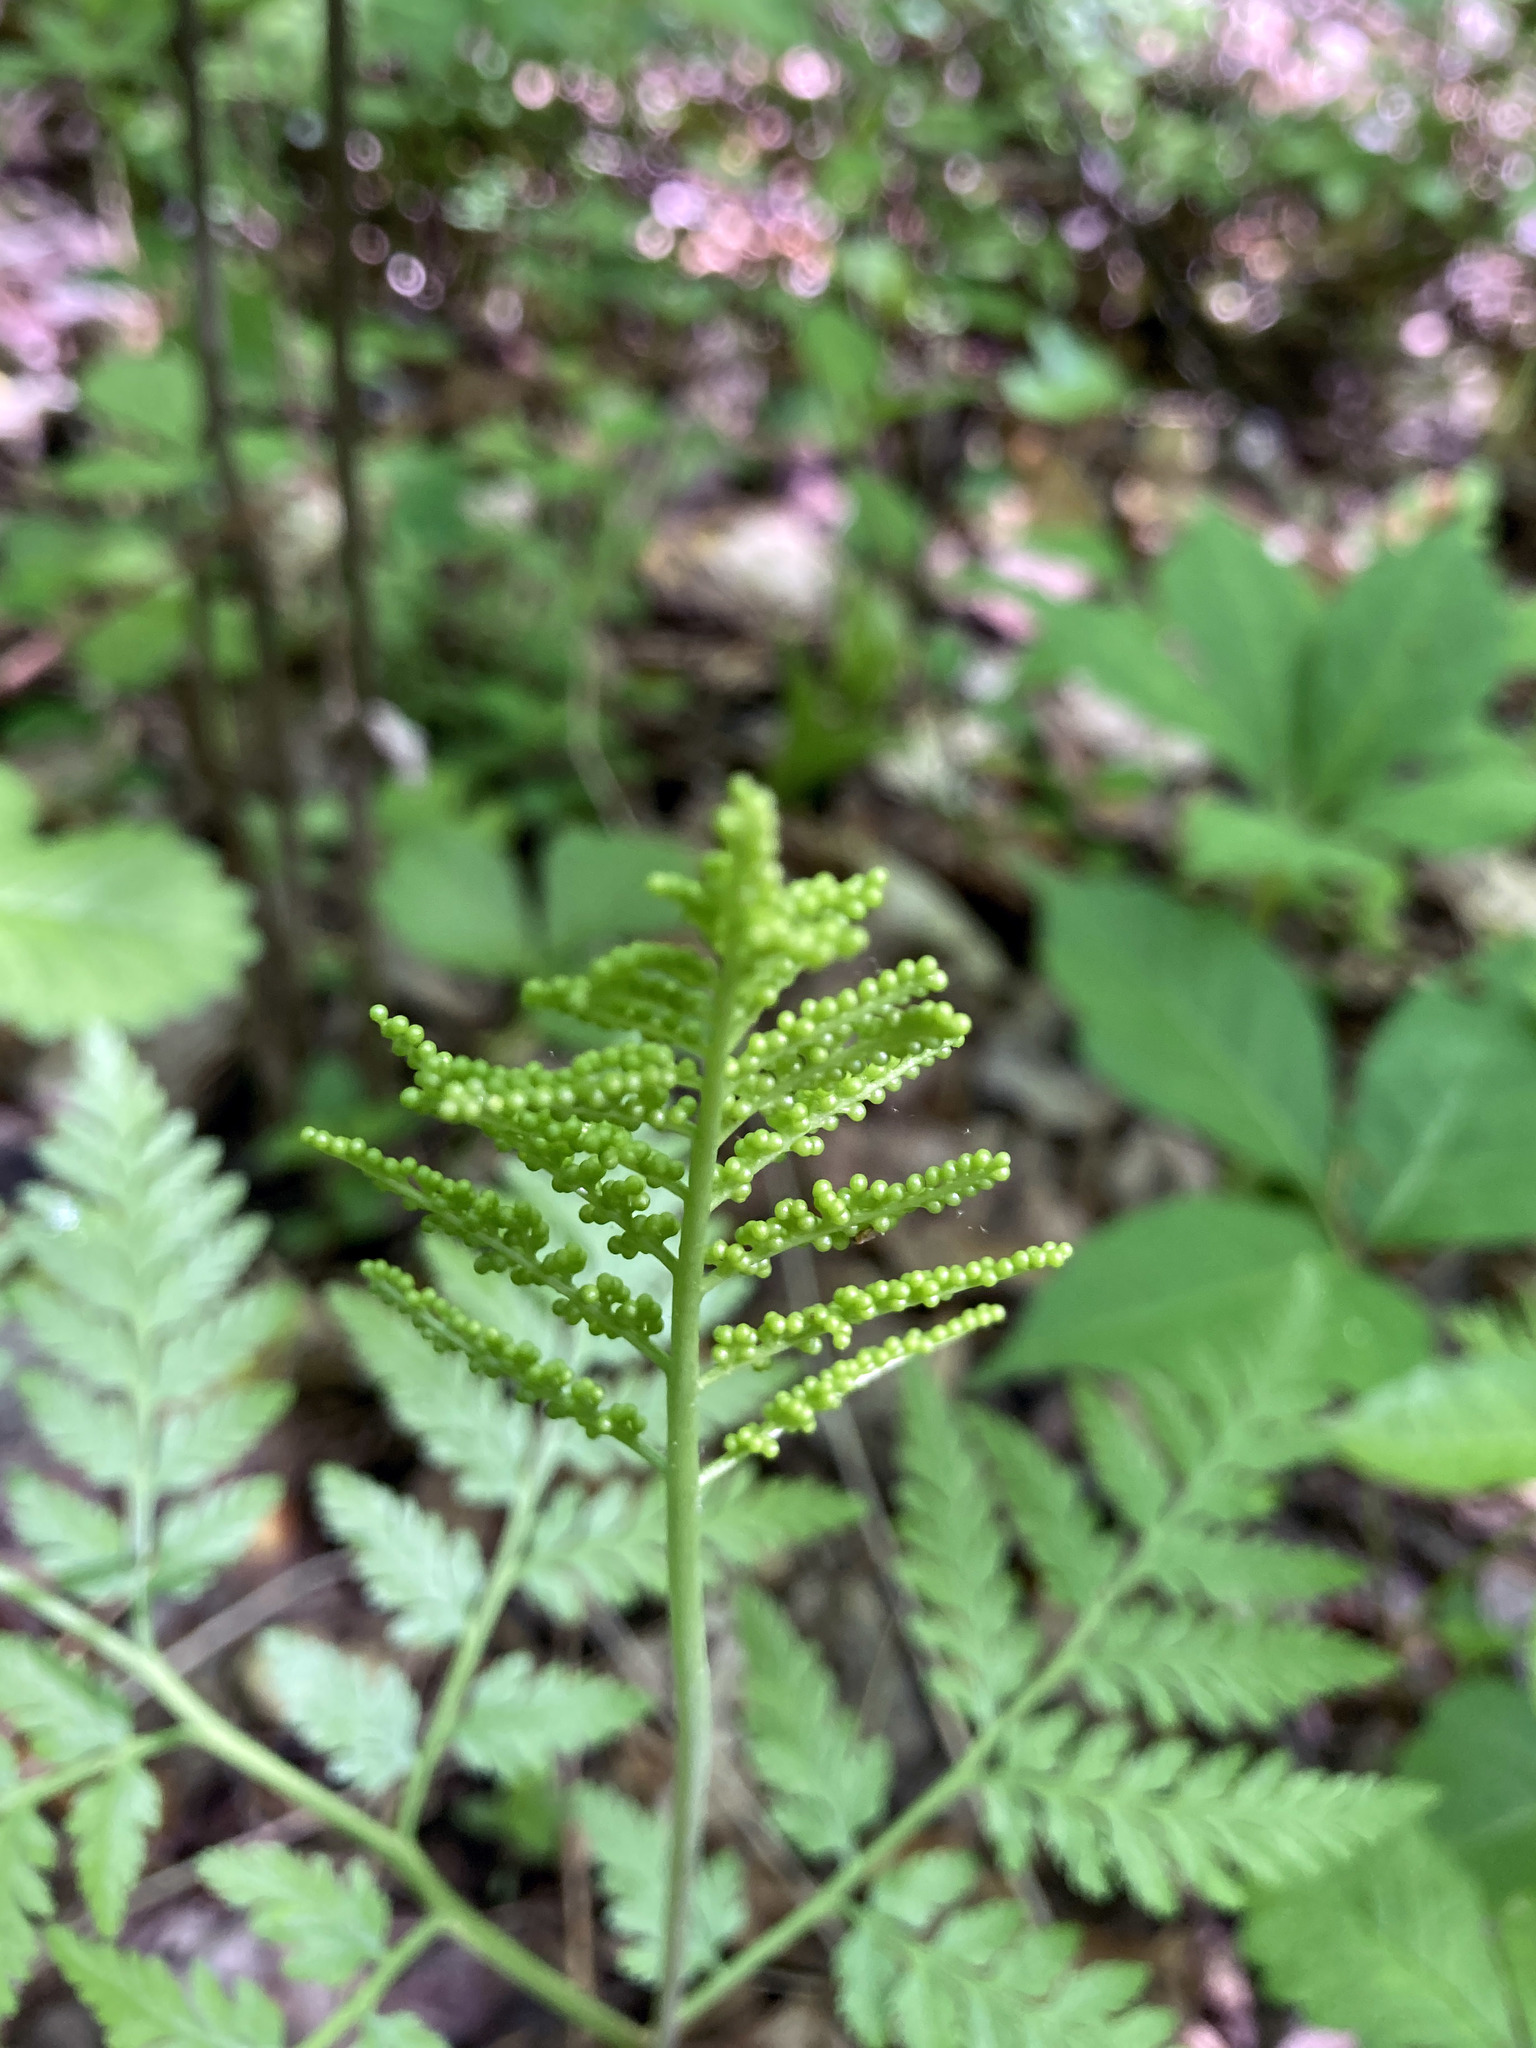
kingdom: Plantae
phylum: Tracheophyta
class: Polypodiopsida
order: Ophioglossales
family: Ophioglossaceae
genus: Botrypus
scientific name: Botrypus virginianus
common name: Common grapefern
